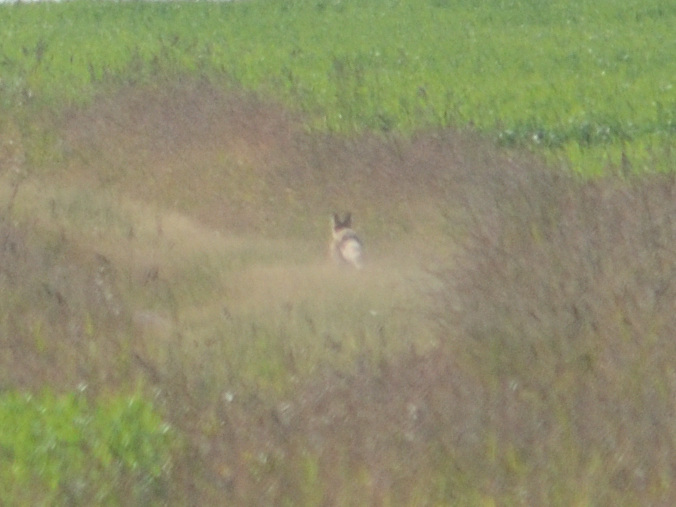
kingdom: Animalia
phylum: Chordata
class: Mammalia
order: Carnivora
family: Canidae
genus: Vulpes
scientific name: Vulpes vulpes
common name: Red fox
